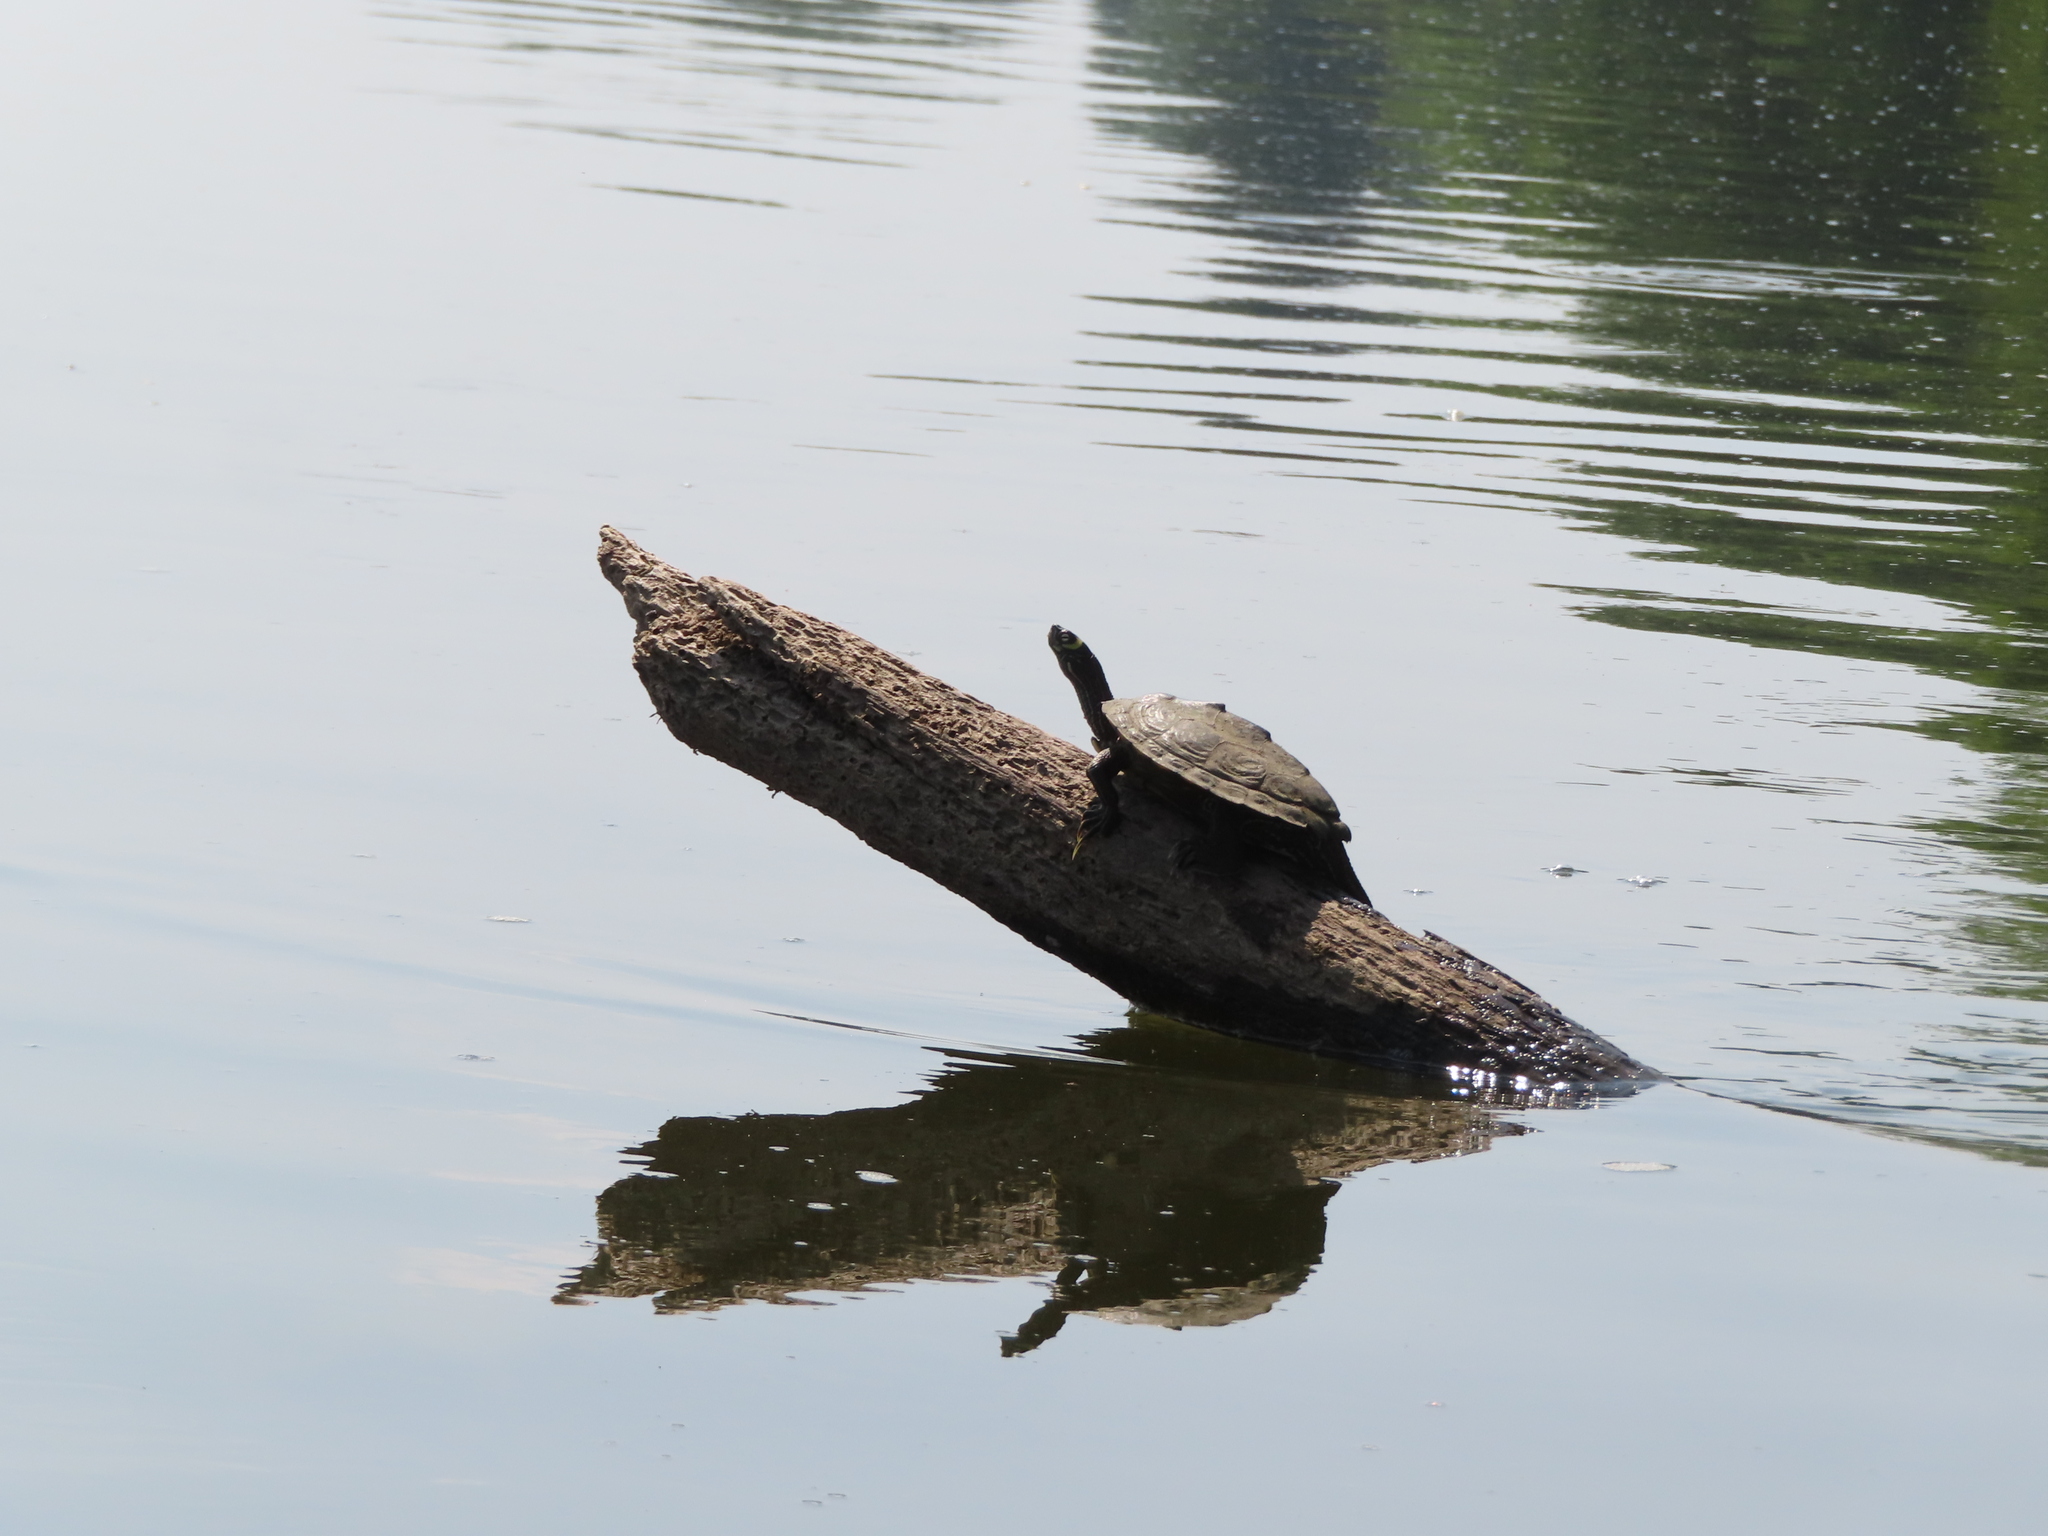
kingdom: Animalia
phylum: Chordata
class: Testudines
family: Emydidae
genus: Graptemys
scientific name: Graptemys ouachitensis
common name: Ouachita map turtle
